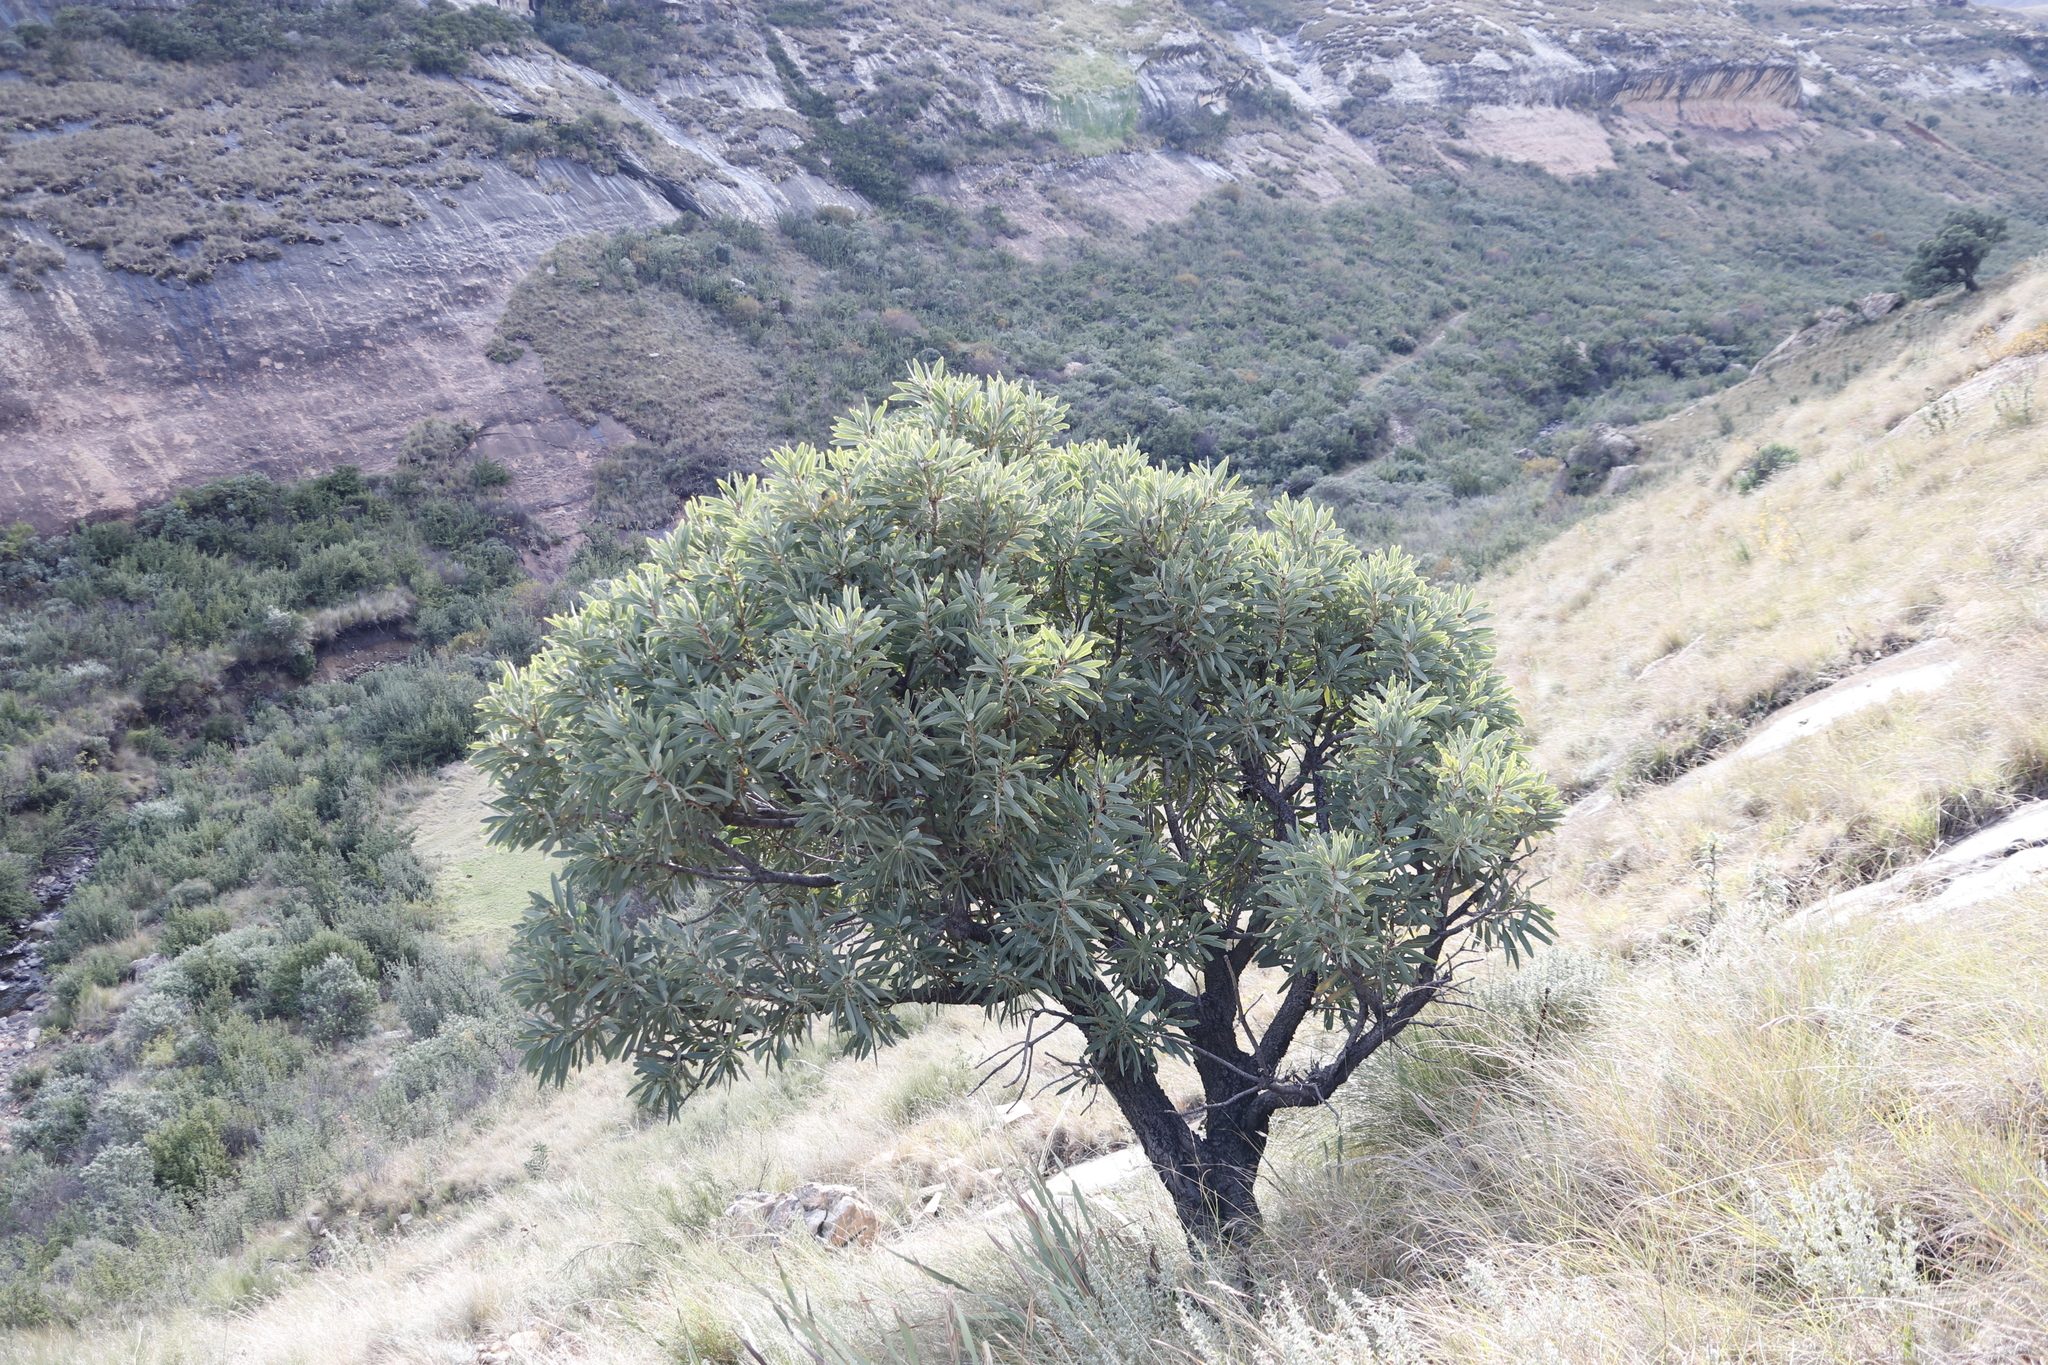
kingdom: Plantae
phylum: Tracheophyta
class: Magnoliopsida
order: Proteales
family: Proteaceae
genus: Protea
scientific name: Protea caffra
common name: Common sugarbush
